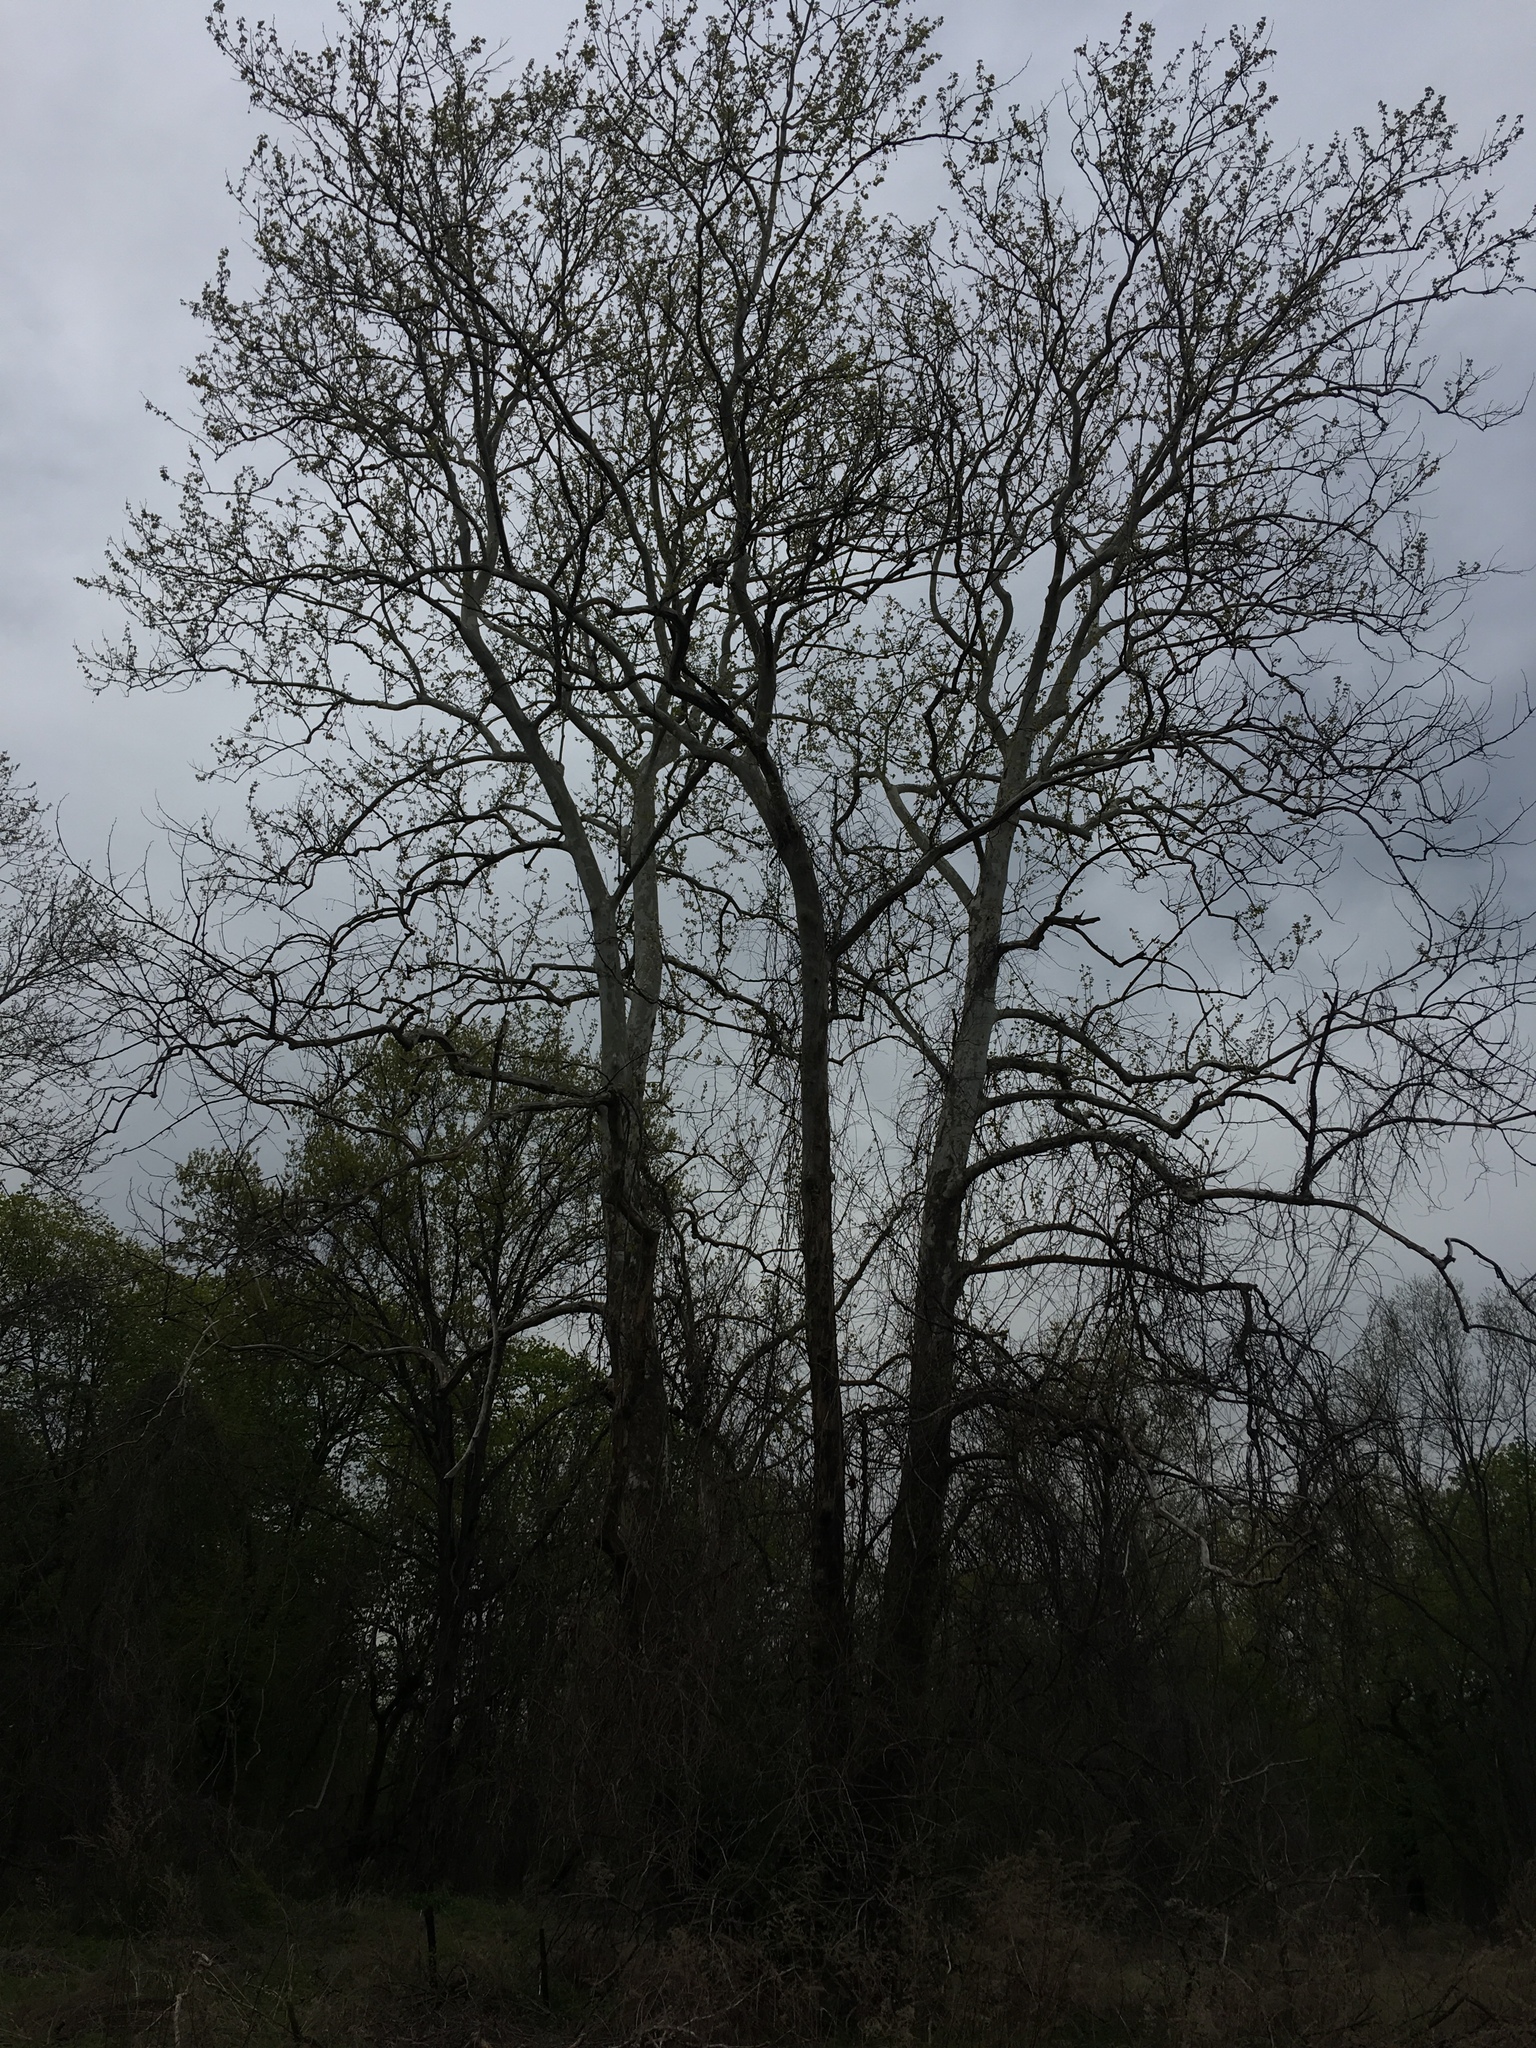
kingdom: Plantae
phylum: Tracheophyta
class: Magnoliopsida
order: Proteales
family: Platanaceae
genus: Platanus
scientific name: Platanus occidentalis
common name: American sycamore
